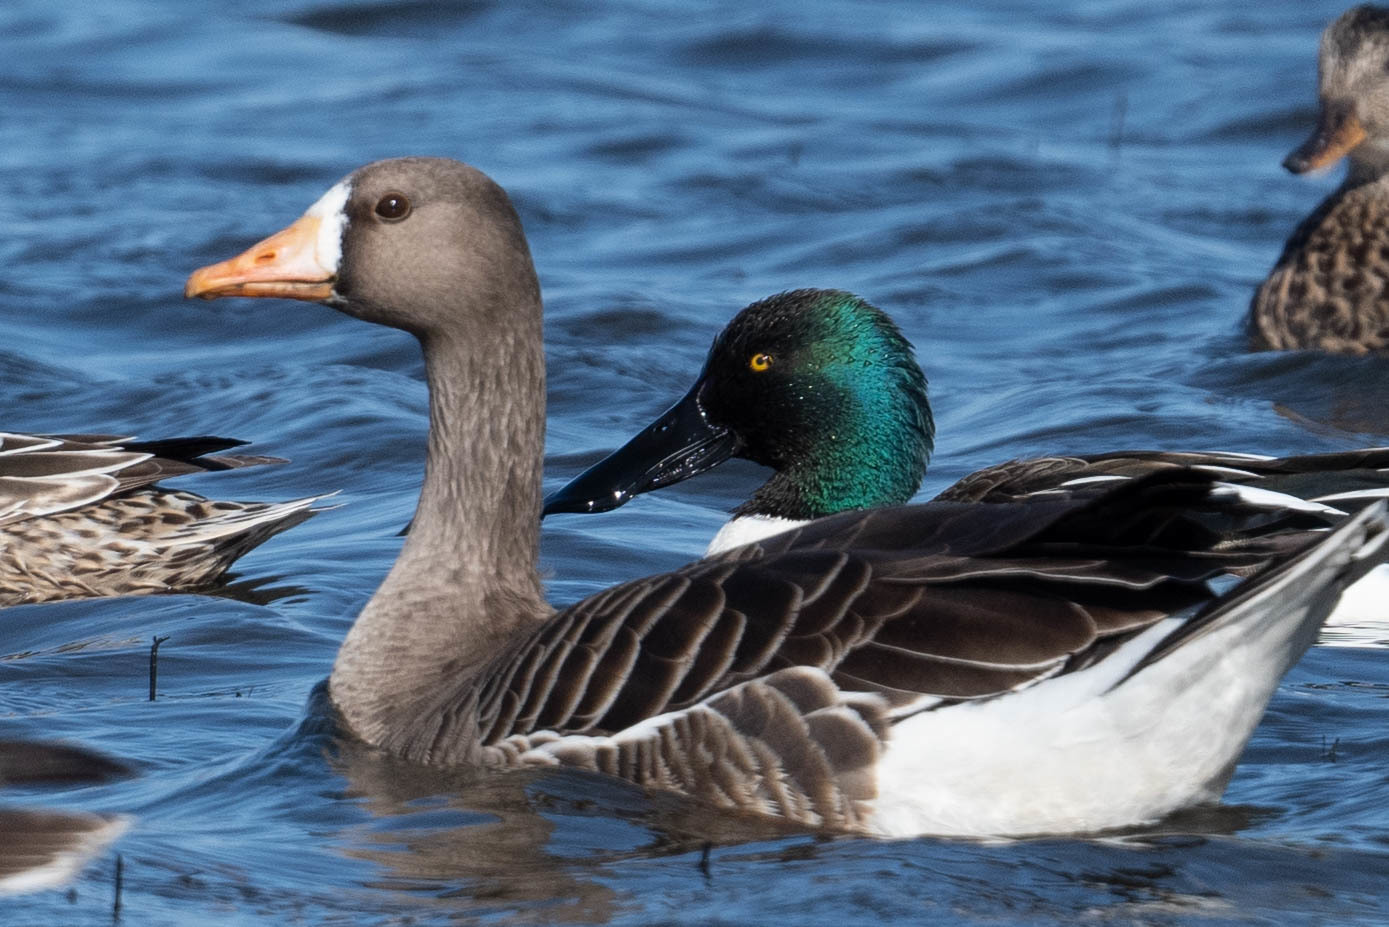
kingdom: Animalia
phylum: Chordata
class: Aves
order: Anseriformes
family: Anatidae
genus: Anser
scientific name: Anser albifrons
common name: Greater white-fronted goose
